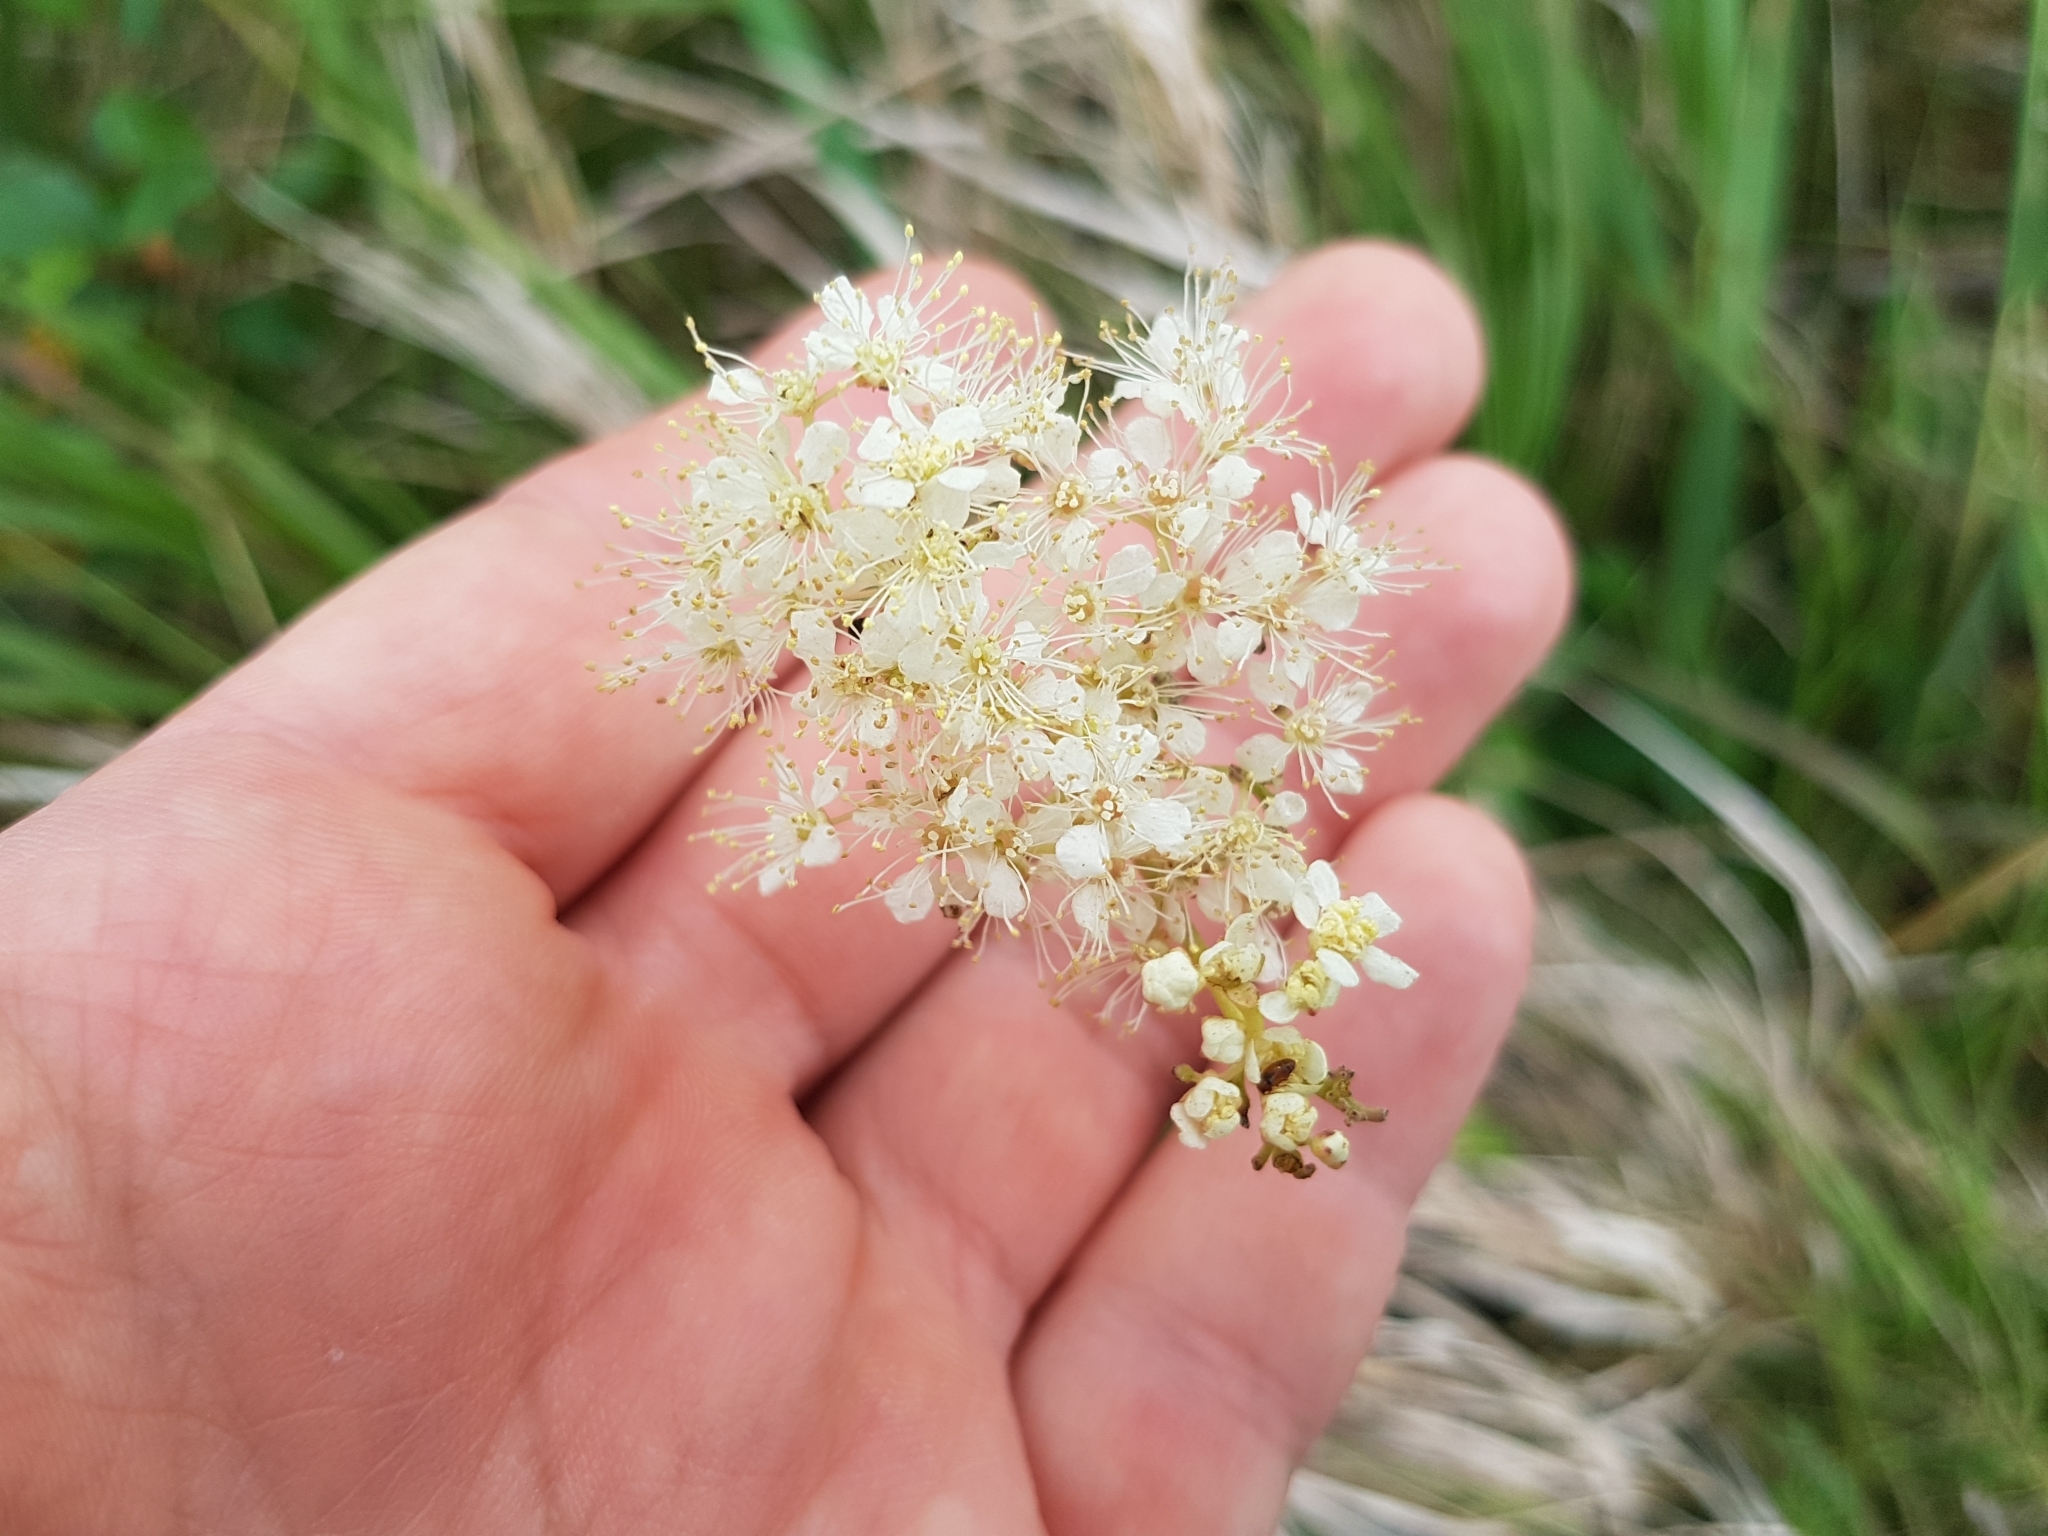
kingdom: Plantae
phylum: Tracheophyta
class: Magnoliopsida
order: Rosales
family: Rosaceae
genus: Filipendula
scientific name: Filipendula ulmaria
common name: Meadowsweet
